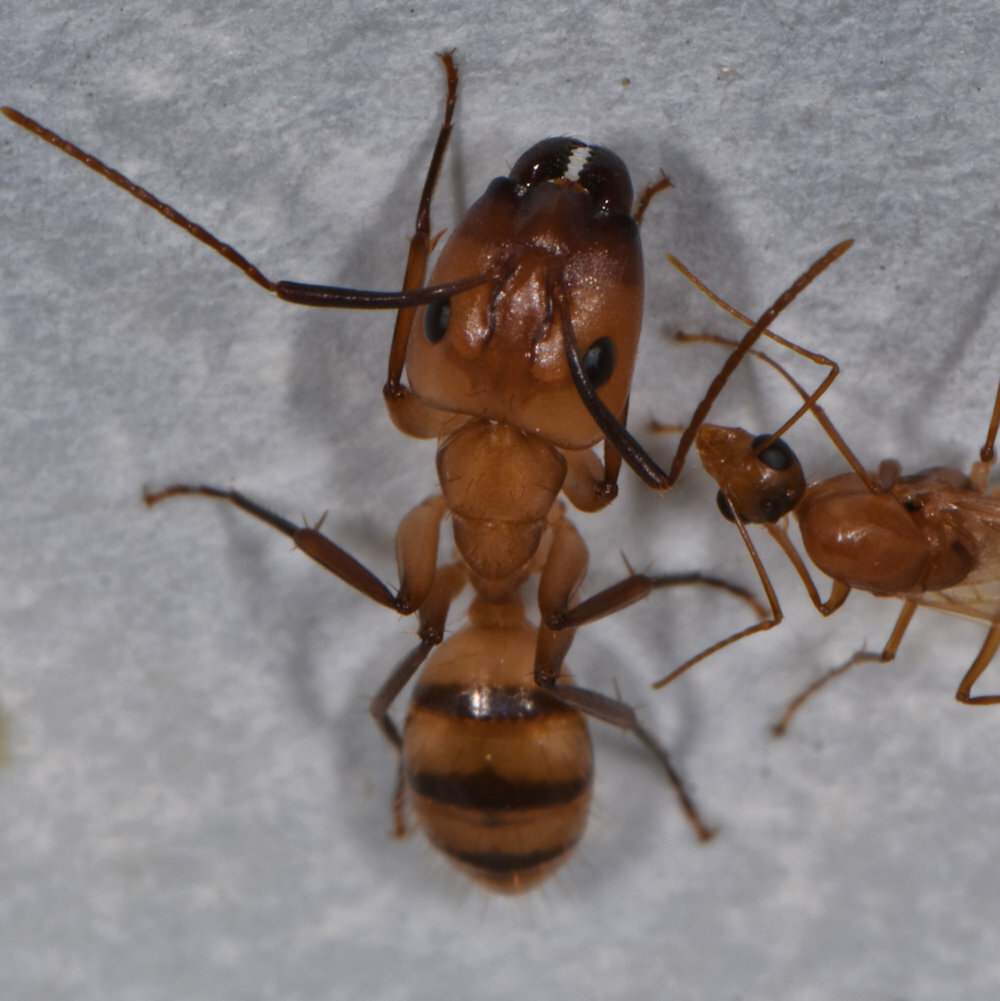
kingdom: Animalia
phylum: Arthropoda
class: Insecta
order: Hymenoptera
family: Formicidae
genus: Camponotus
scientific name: Camponotus
